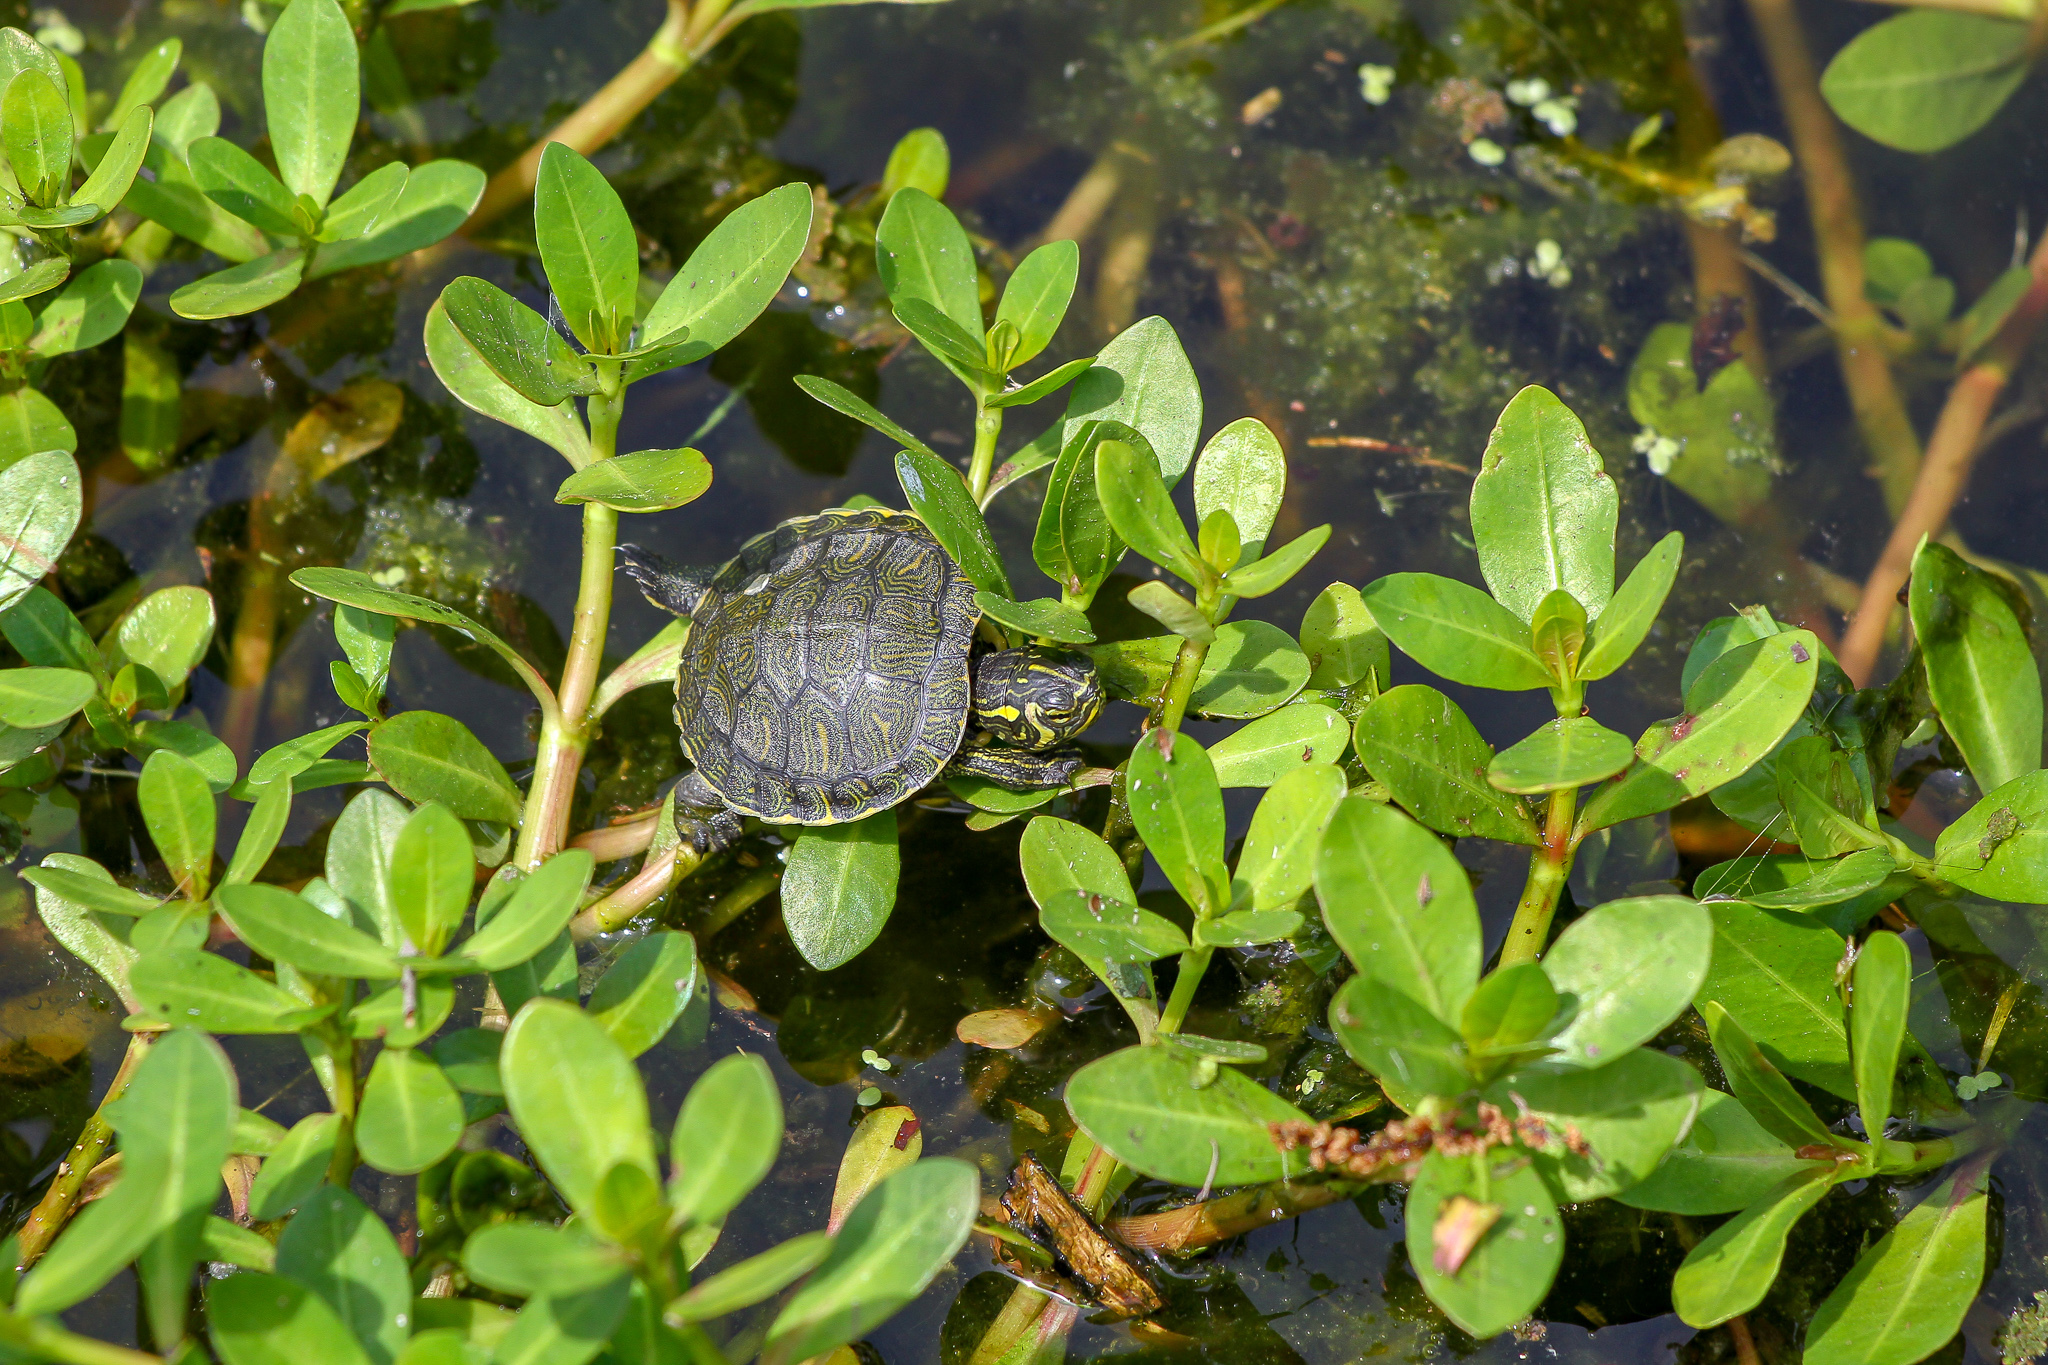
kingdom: Animalia
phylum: Chordata
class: Testudines
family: Emydidae
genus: Trachemys
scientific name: Trachemys scripta
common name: Slider
